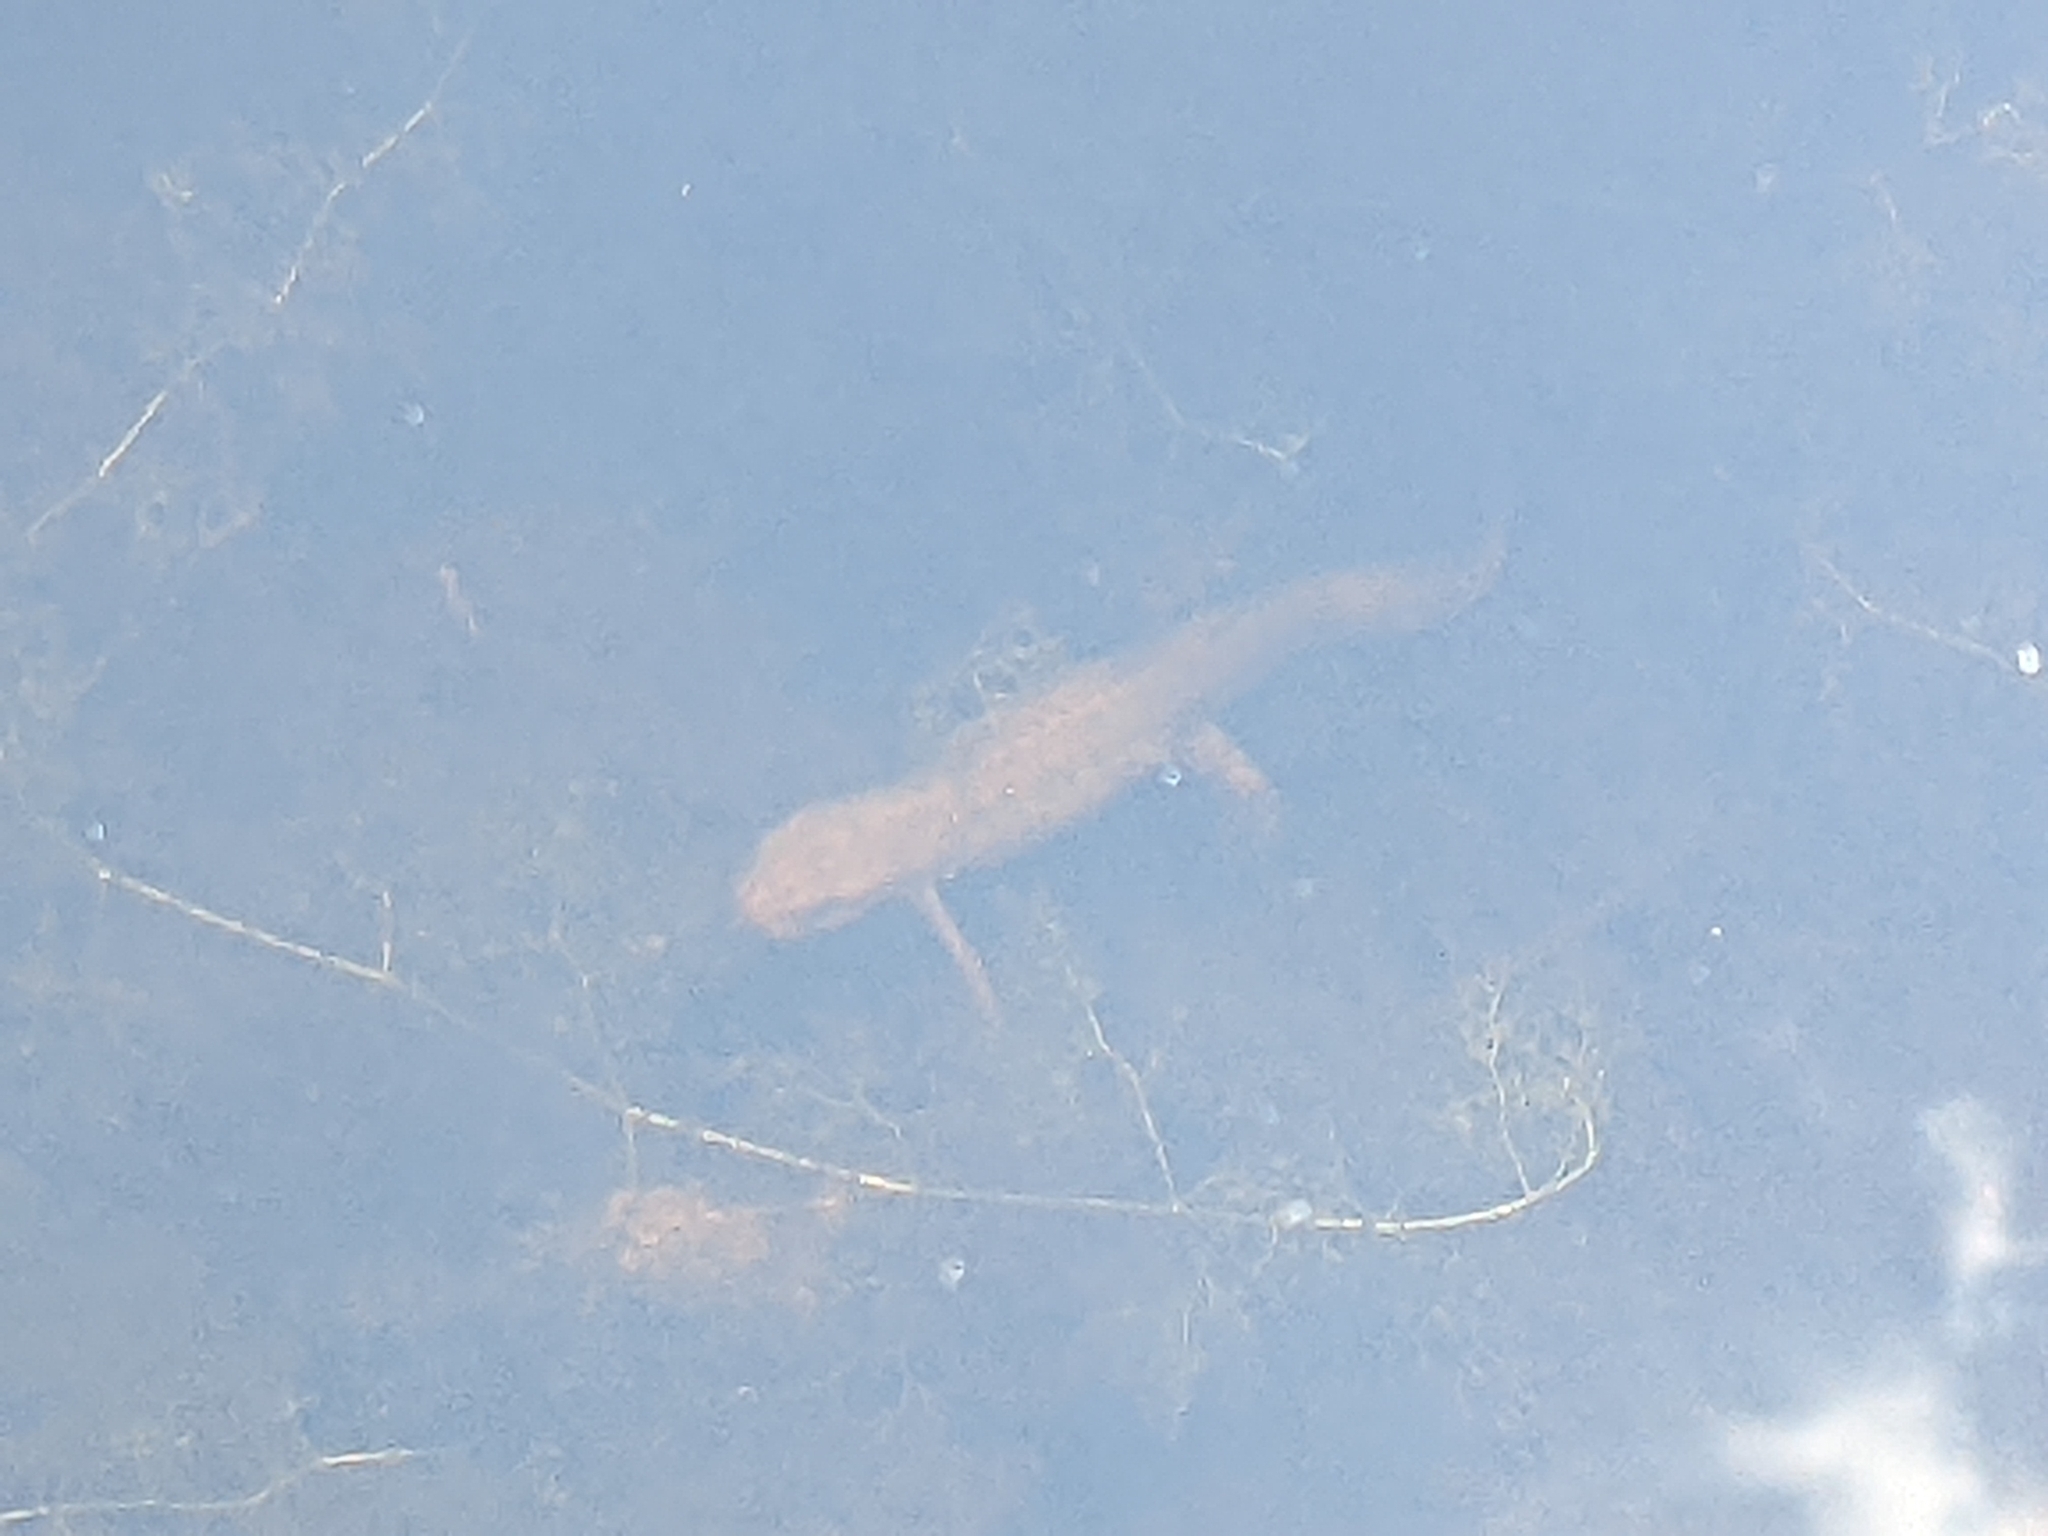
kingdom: Animalia
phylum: Chordata
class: Amphibia
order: Caudata
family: Salamandridae
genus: Notophthalmus
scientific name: Notophthalmus viridescens
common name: Eastern newt
